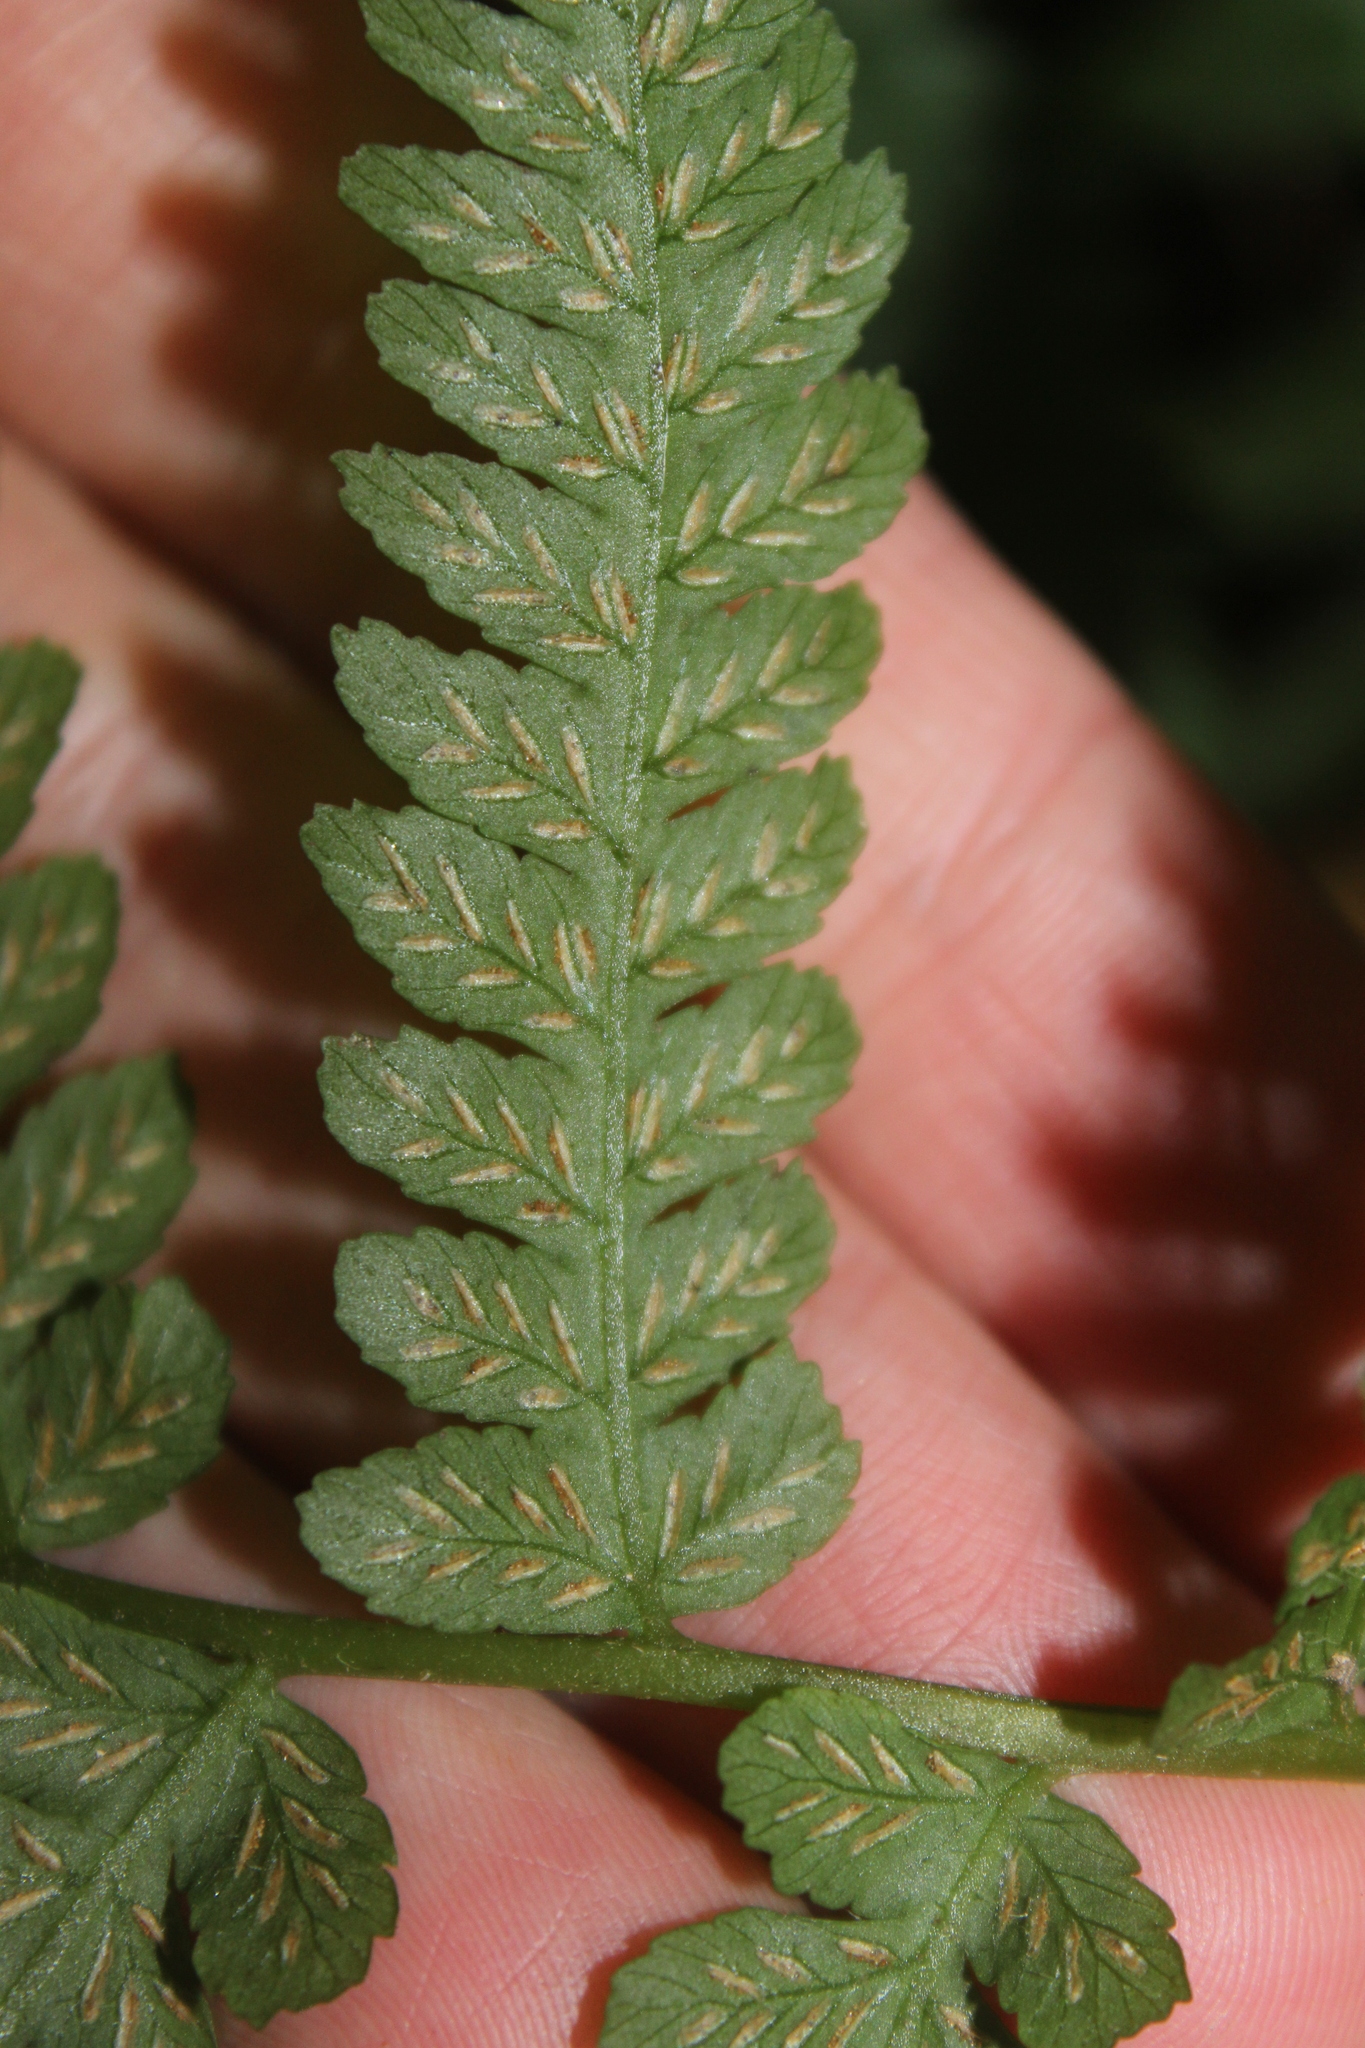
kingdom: Plantae
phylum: Tracheophyta
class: Polypodiopsida
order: Polypodiales
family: Athyriaceae
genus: Diplazium
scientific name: Diplazium congruum
